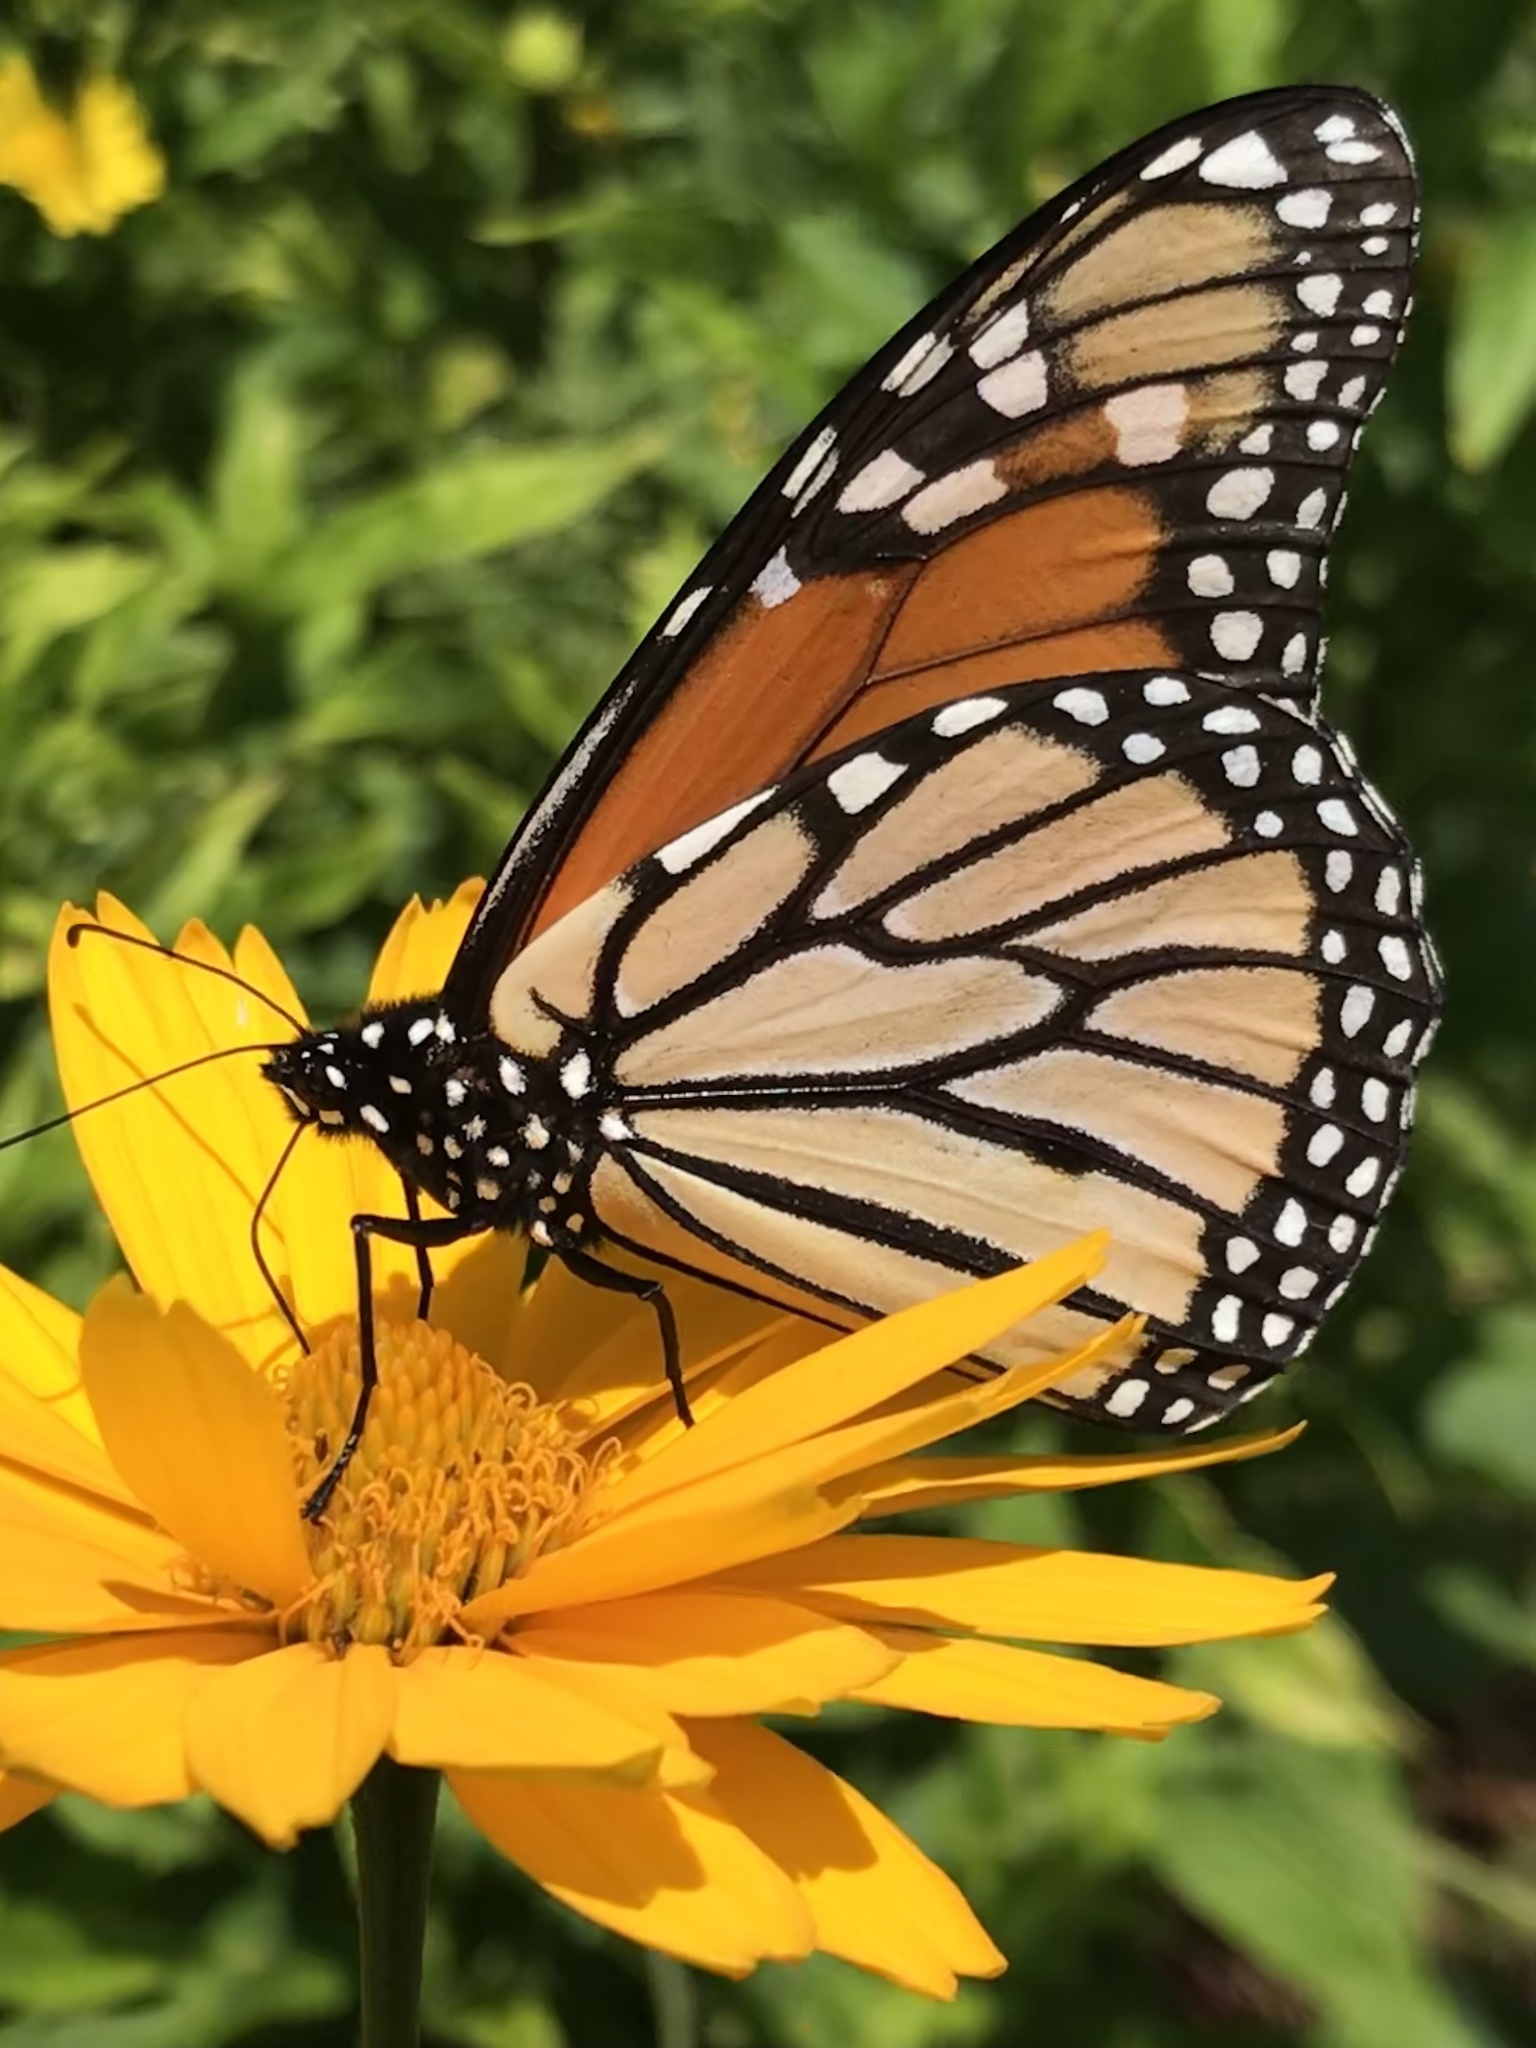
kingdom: Animalia
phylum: Arthropoda
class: Insecta
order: Lepidoptera
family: Nymphalidae
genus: Danaus
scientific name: Danaus plexippus
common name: Monarch
